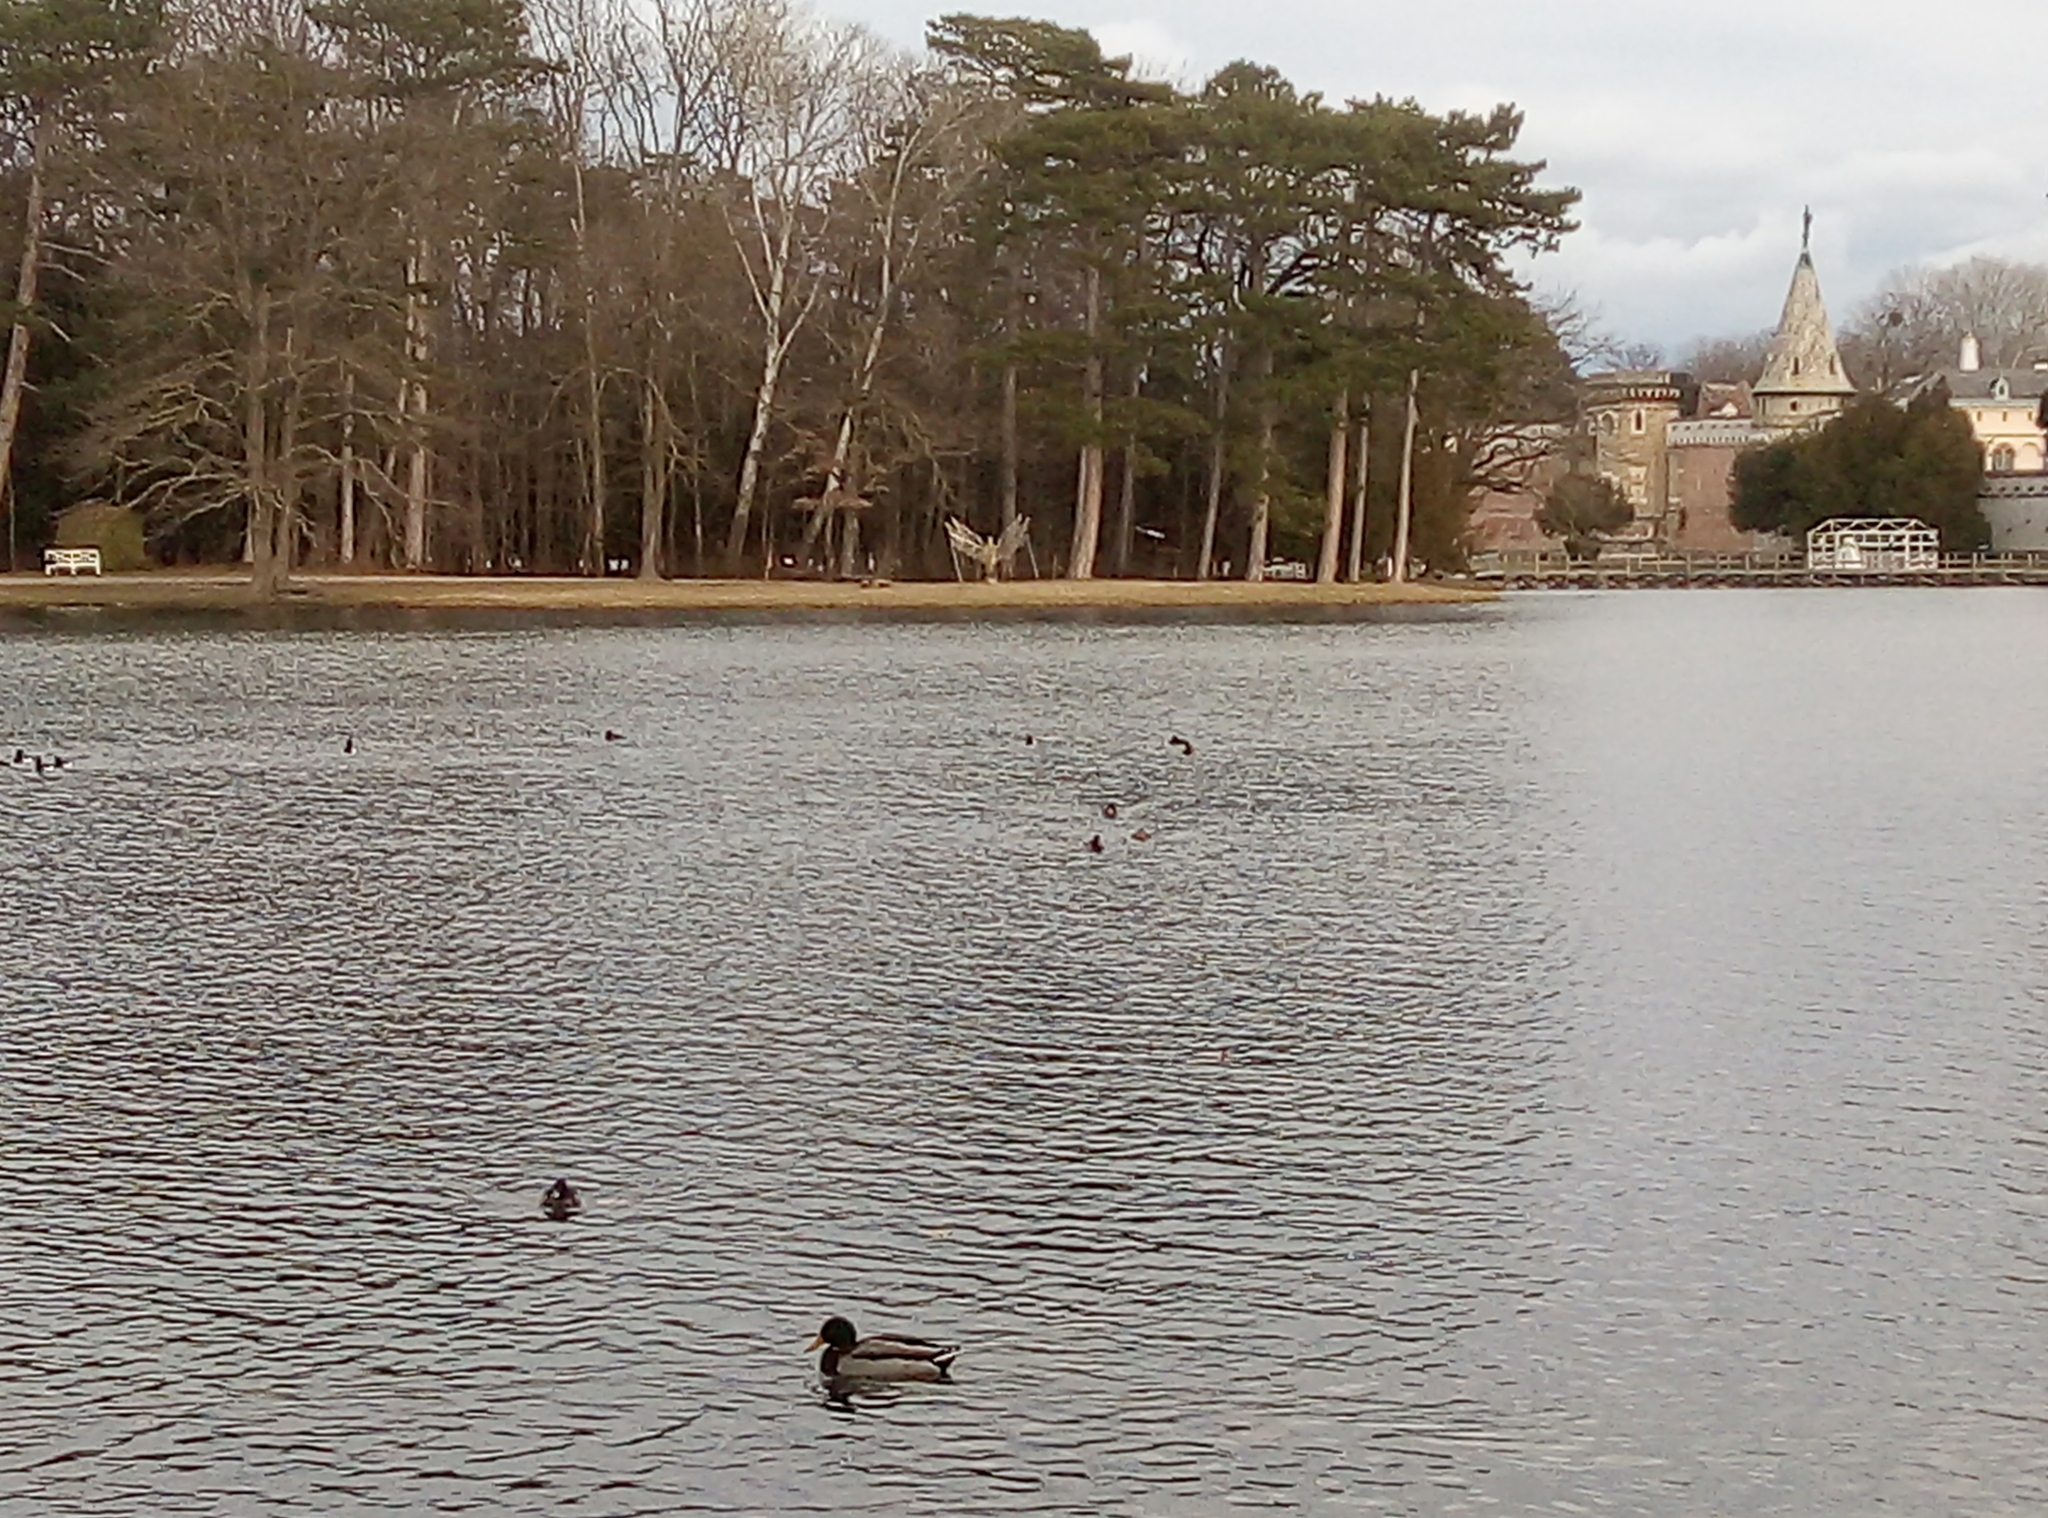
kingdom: Animalia
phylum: Chordata
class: Aves
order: Anseriformes
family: Anatidae
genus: Aythya
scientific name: Aythya fuligula
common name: Tufted duck
